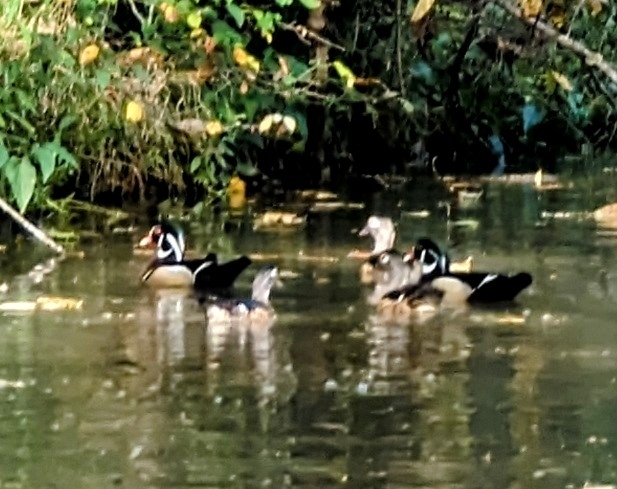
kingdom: Animalia
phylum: Chordata
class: Aves
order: Anseriformes
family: Anatidae
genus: Aix
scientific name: Aix sponsa
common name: Wood duck
